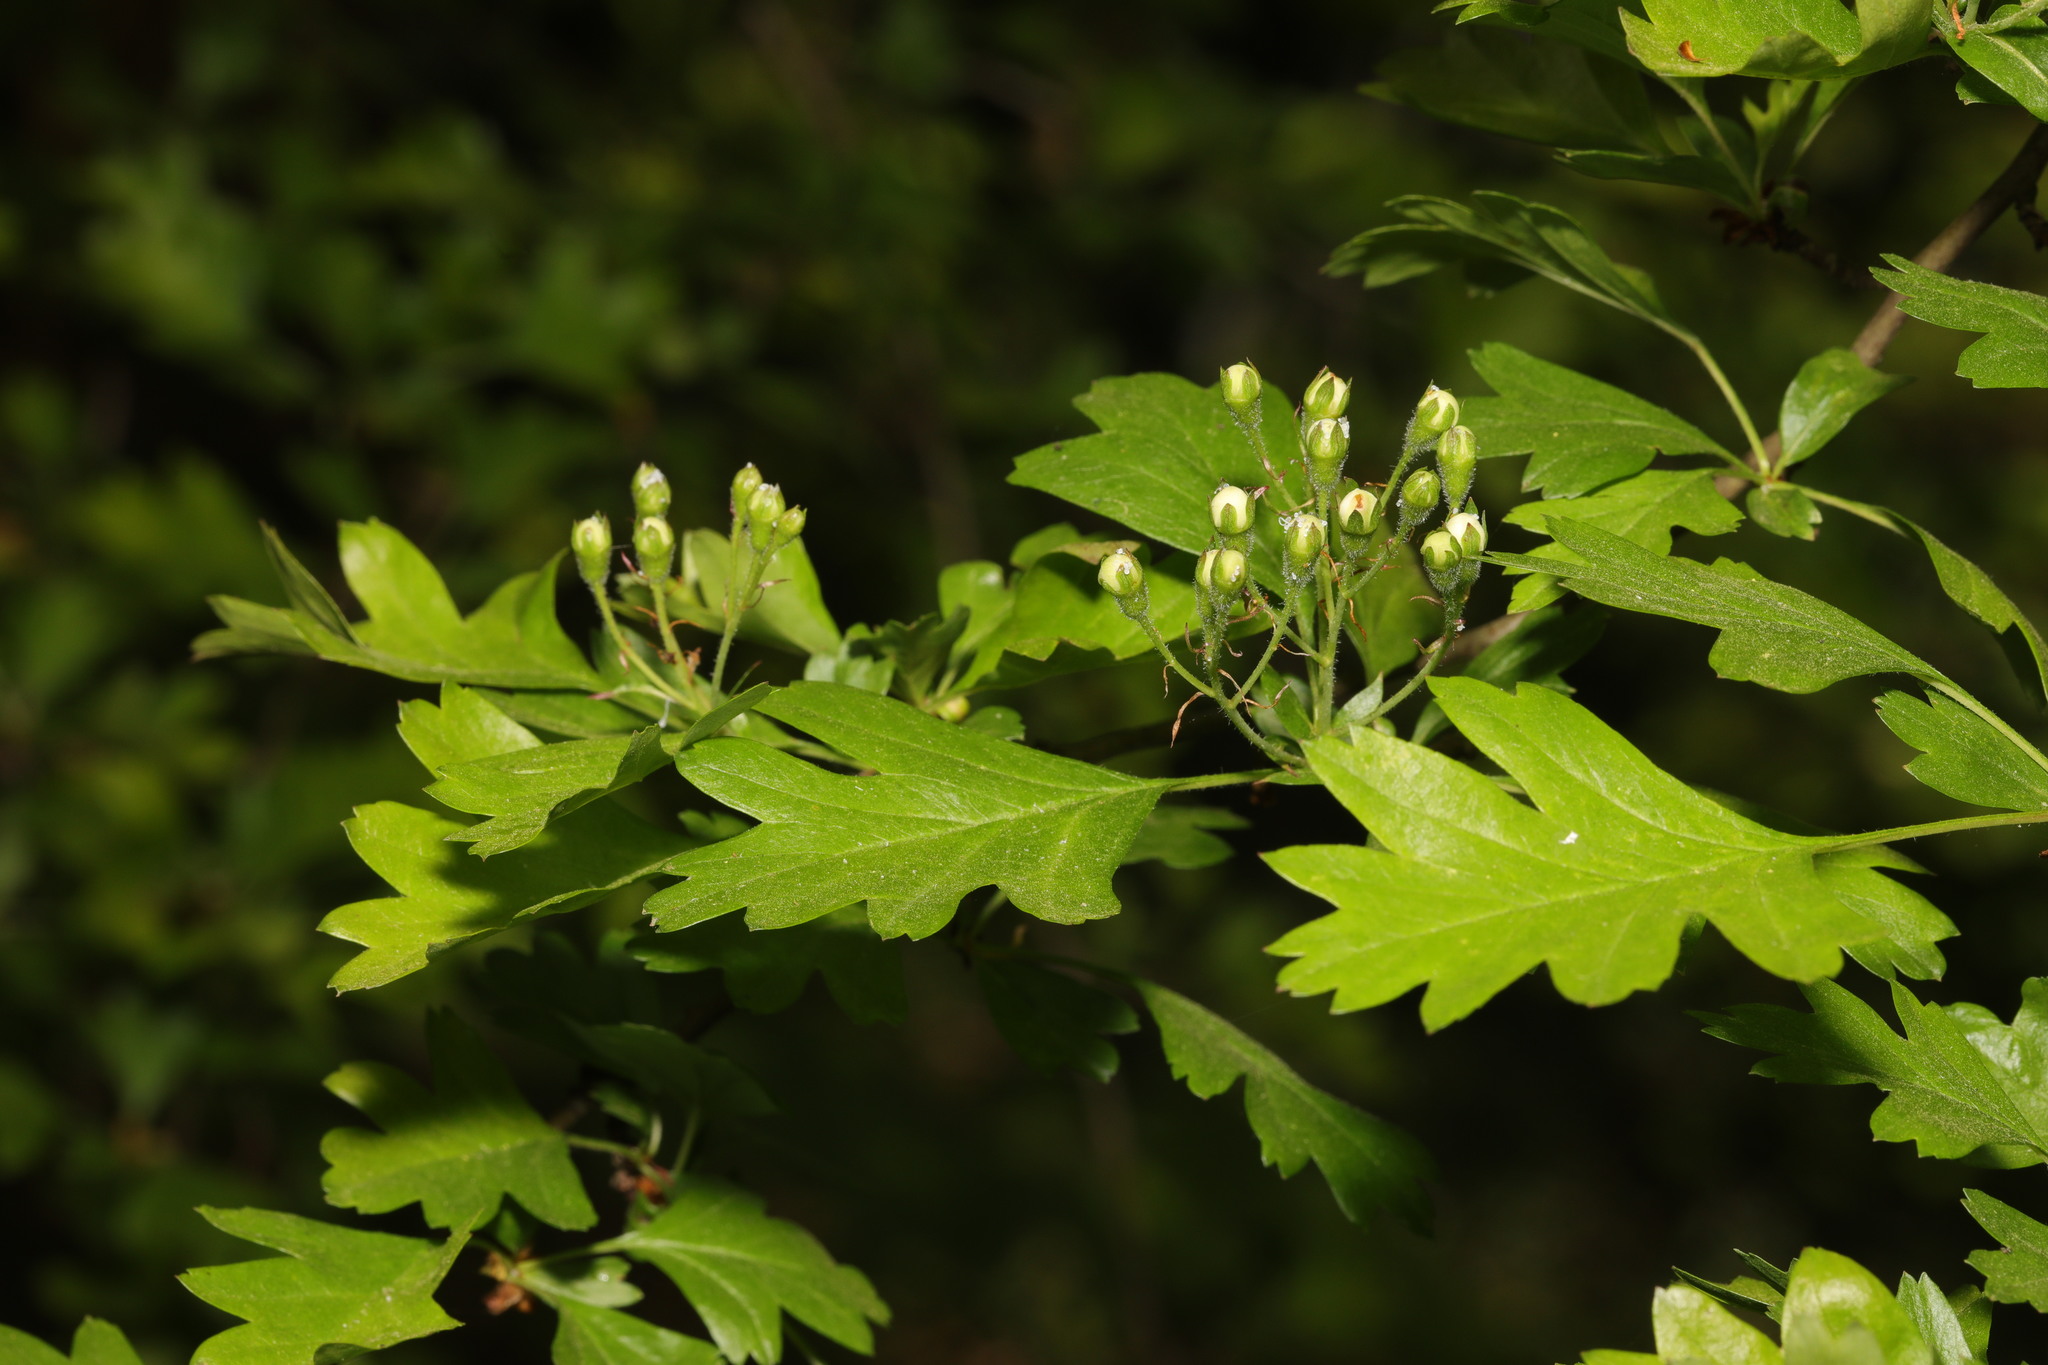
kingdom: Plantae
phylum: Tracheophyta
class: Magnoliopsida
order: Rosales
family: Rosaceae
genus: Crataegus
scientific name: Crataegus monogyna
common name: Hawthorn
